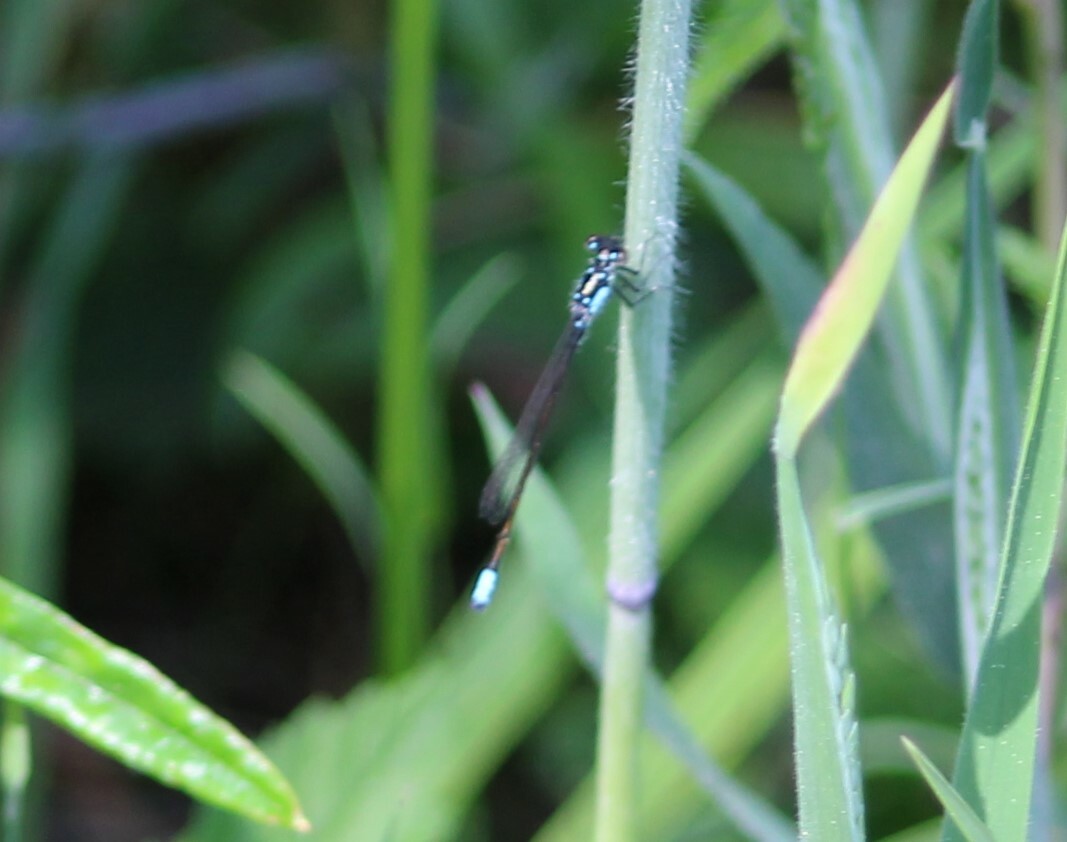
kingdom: Animalia
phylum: Arthropoda
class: Insecta
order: Odonata
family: Coenagrionidae
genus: Ischnura
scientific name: Ischnura cervula
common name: Pacific forktail
